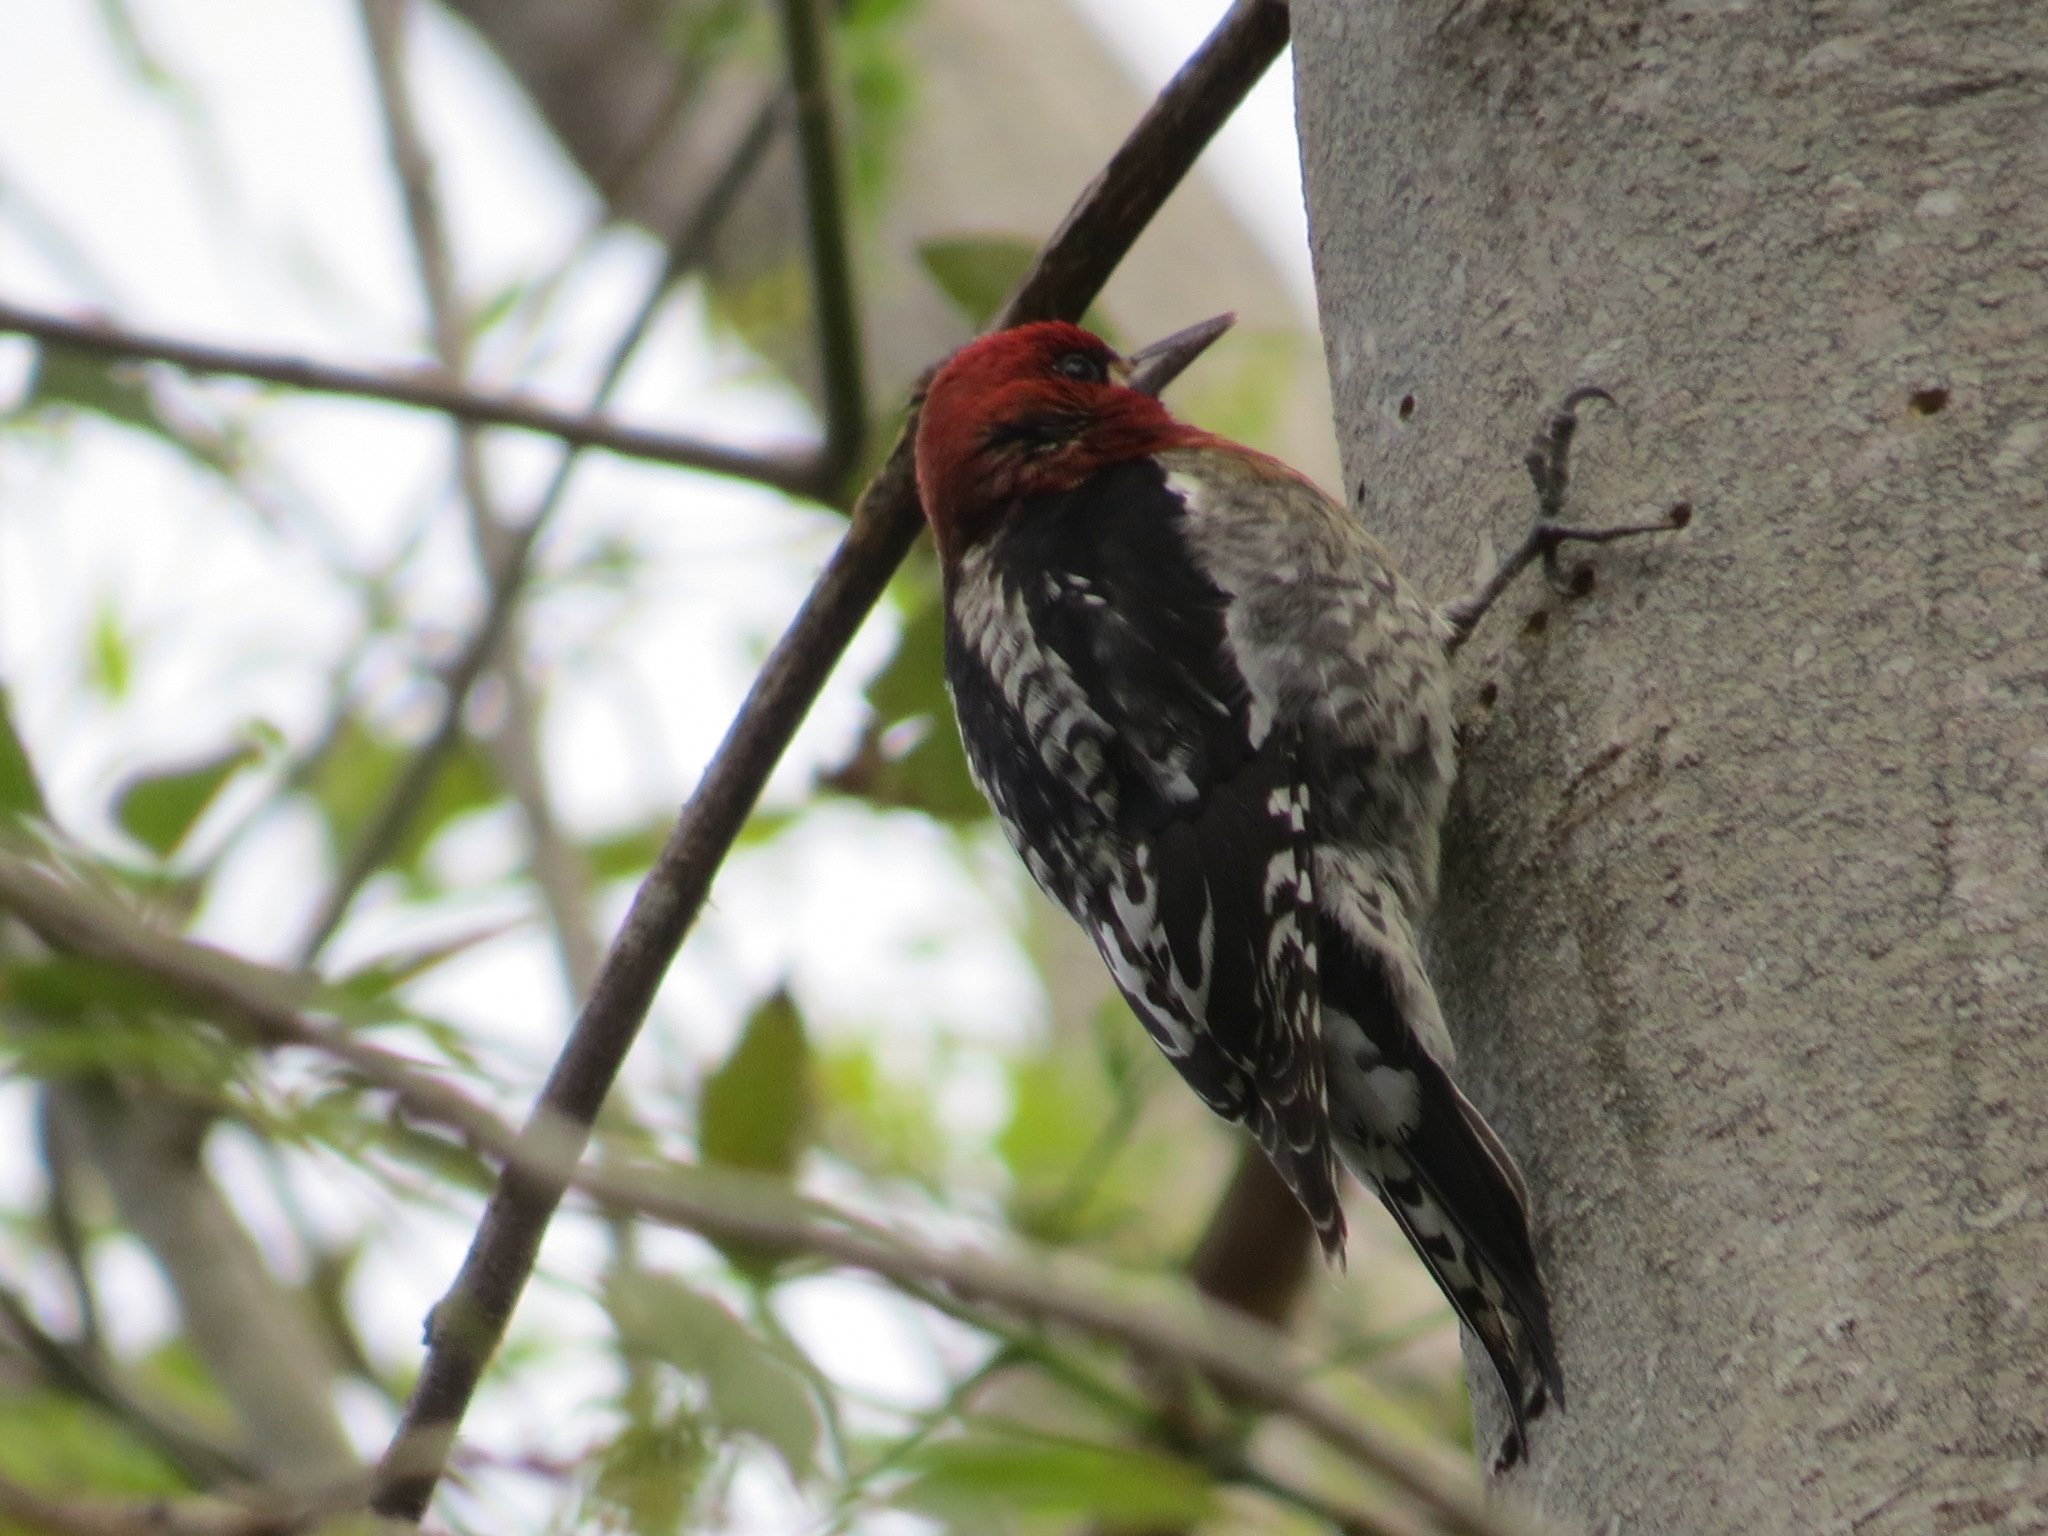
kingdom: Animalia
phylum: Chordata
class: Aves
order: Piciformes
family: Picidae
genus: Sphyrapicus
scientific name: Sphyrapicus ruber
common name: Red-breasted sapsucker
